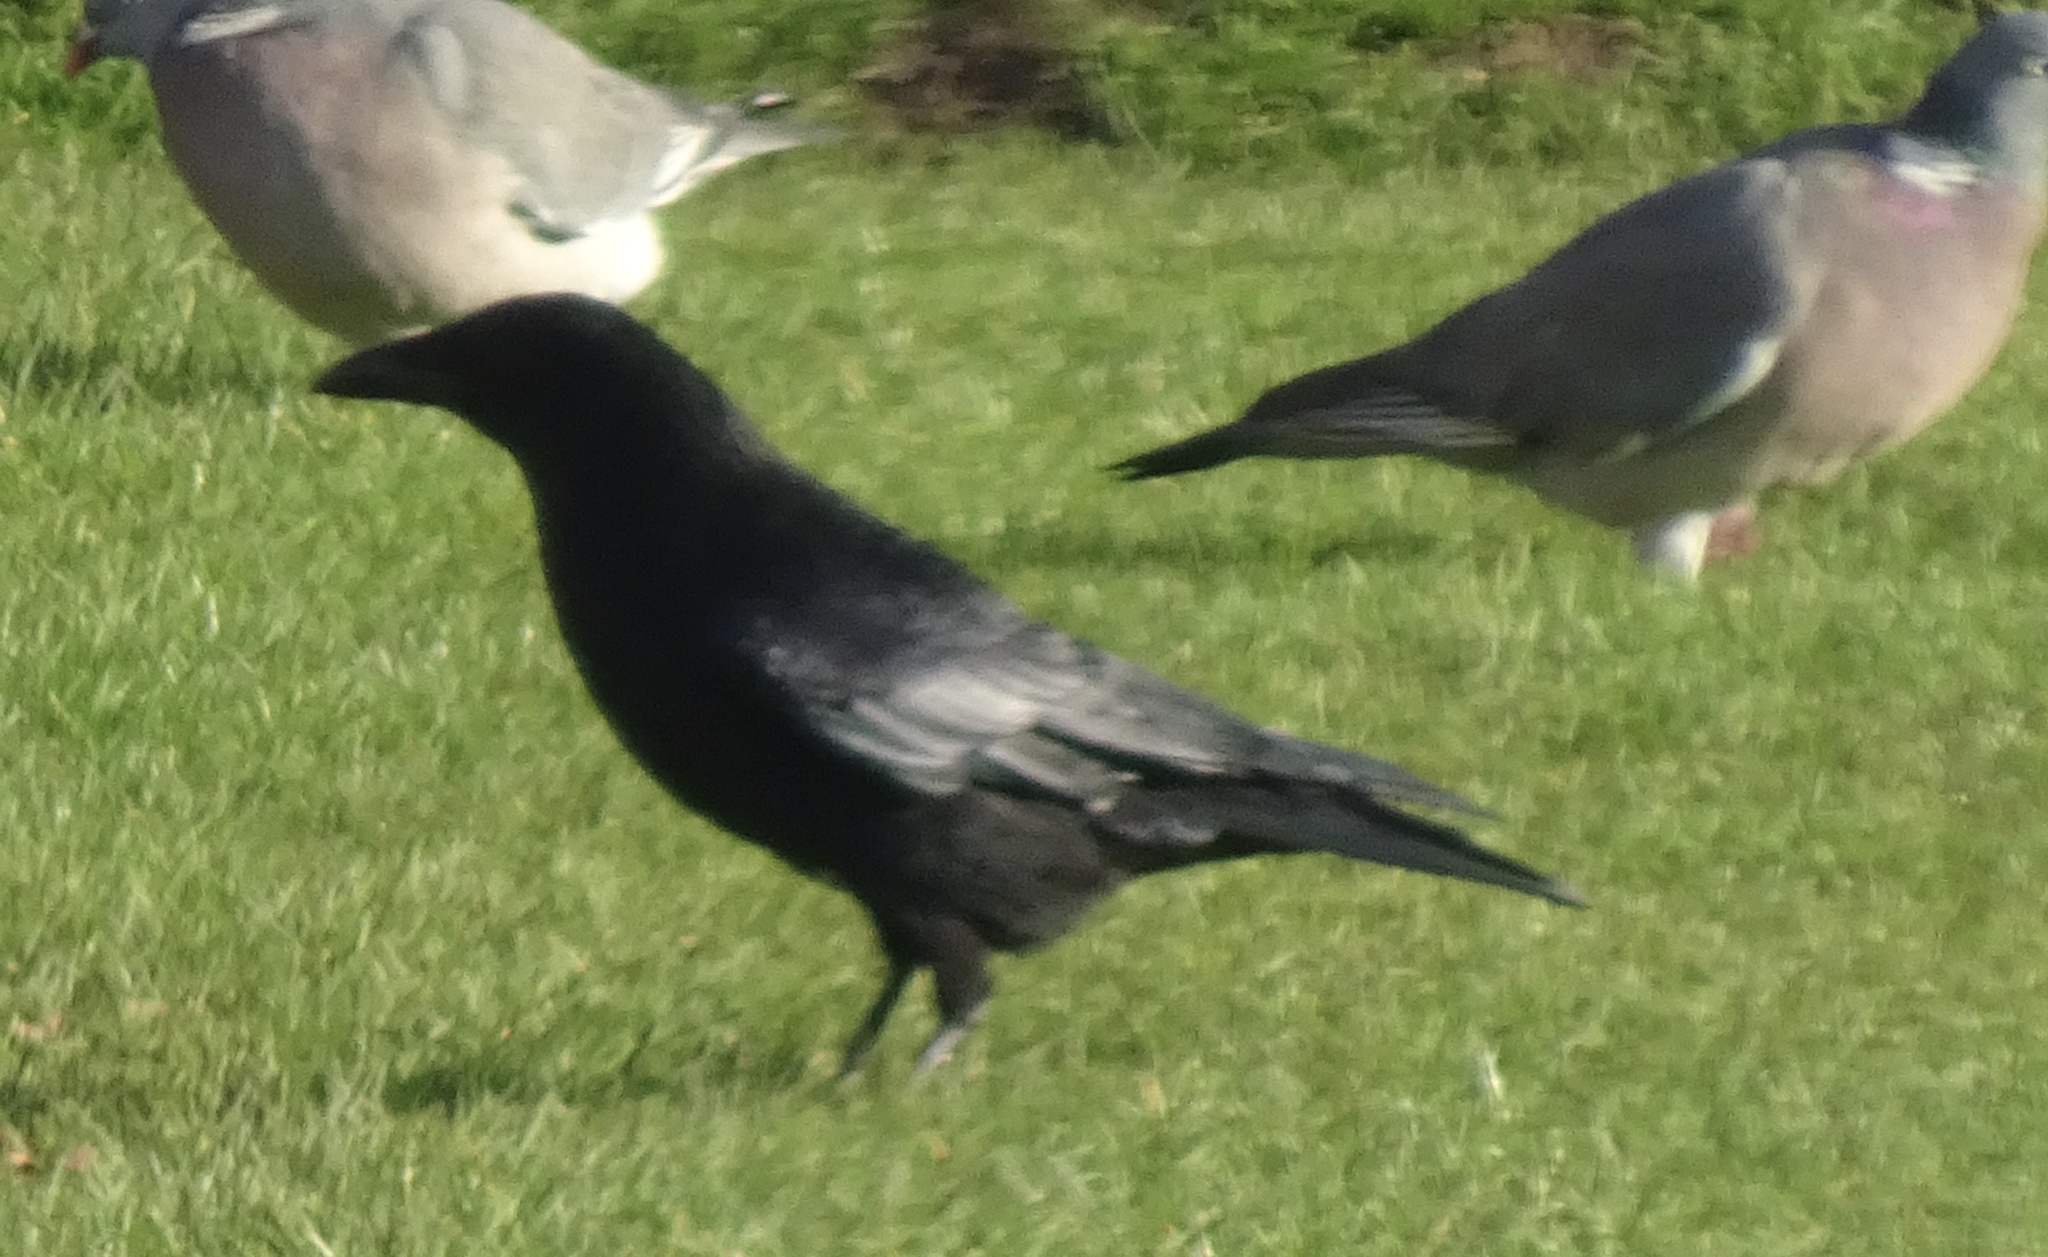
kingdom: Animalia
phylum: Chordata
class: Aves
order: Passeriformes
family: Corvidae
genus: Corvus
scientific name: Corvus corone
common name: Carrion crow
